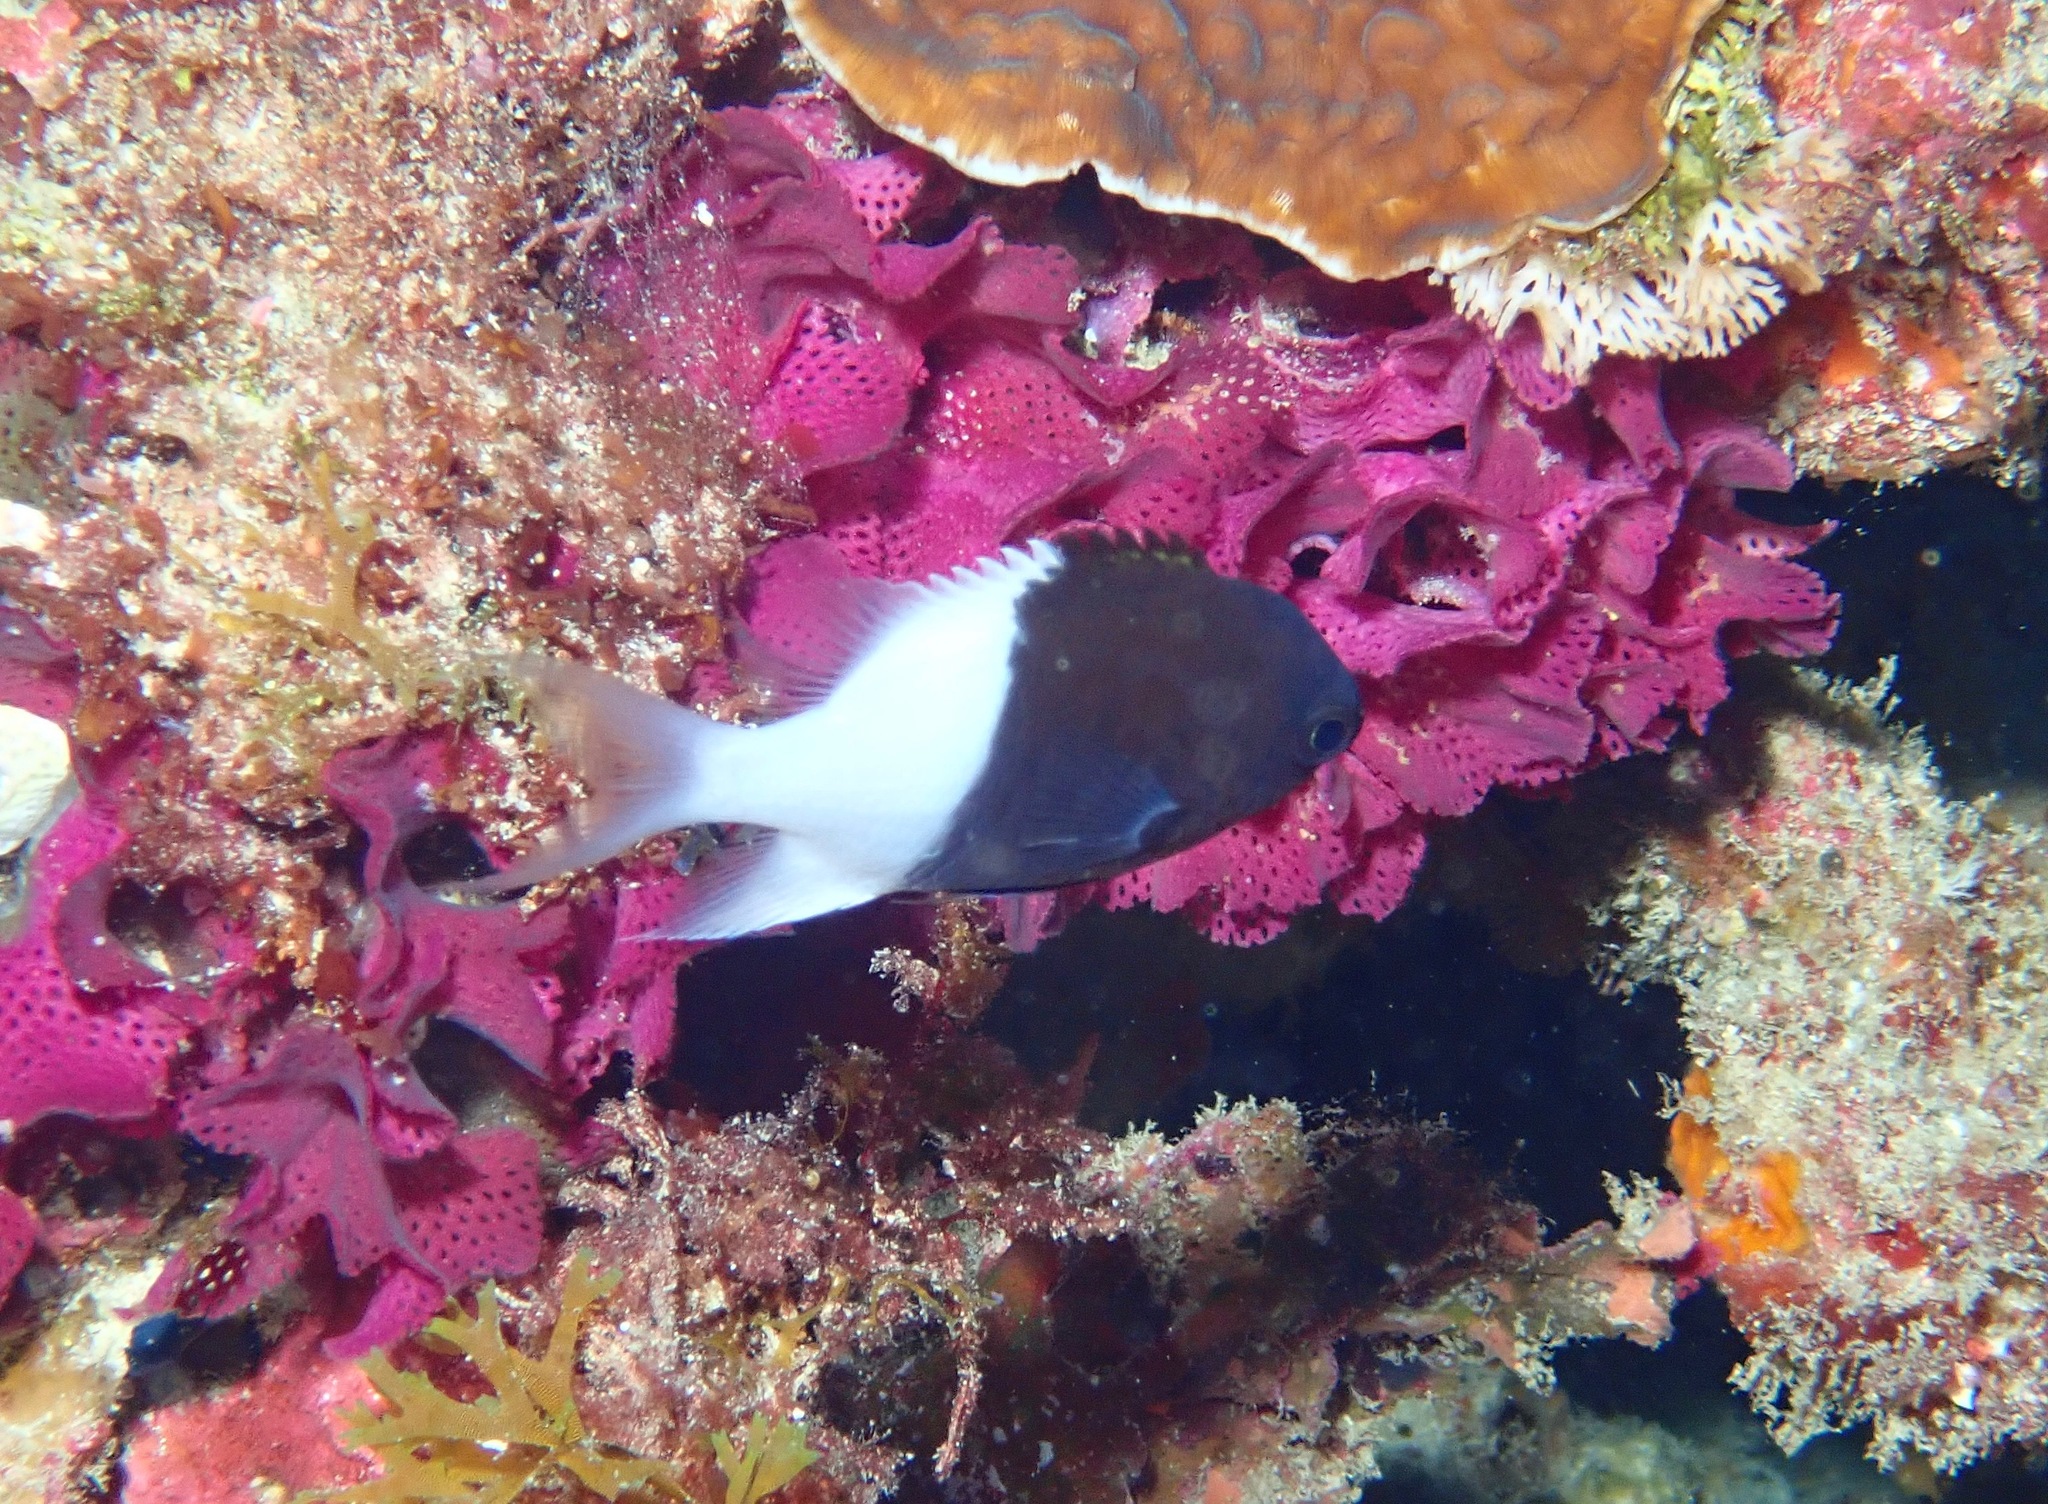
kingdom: Animalia
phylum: Chordata
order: Perciformes
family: Pomacentridae
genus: Chromis
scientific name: Chromis iomelas
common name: Half and half chromis
